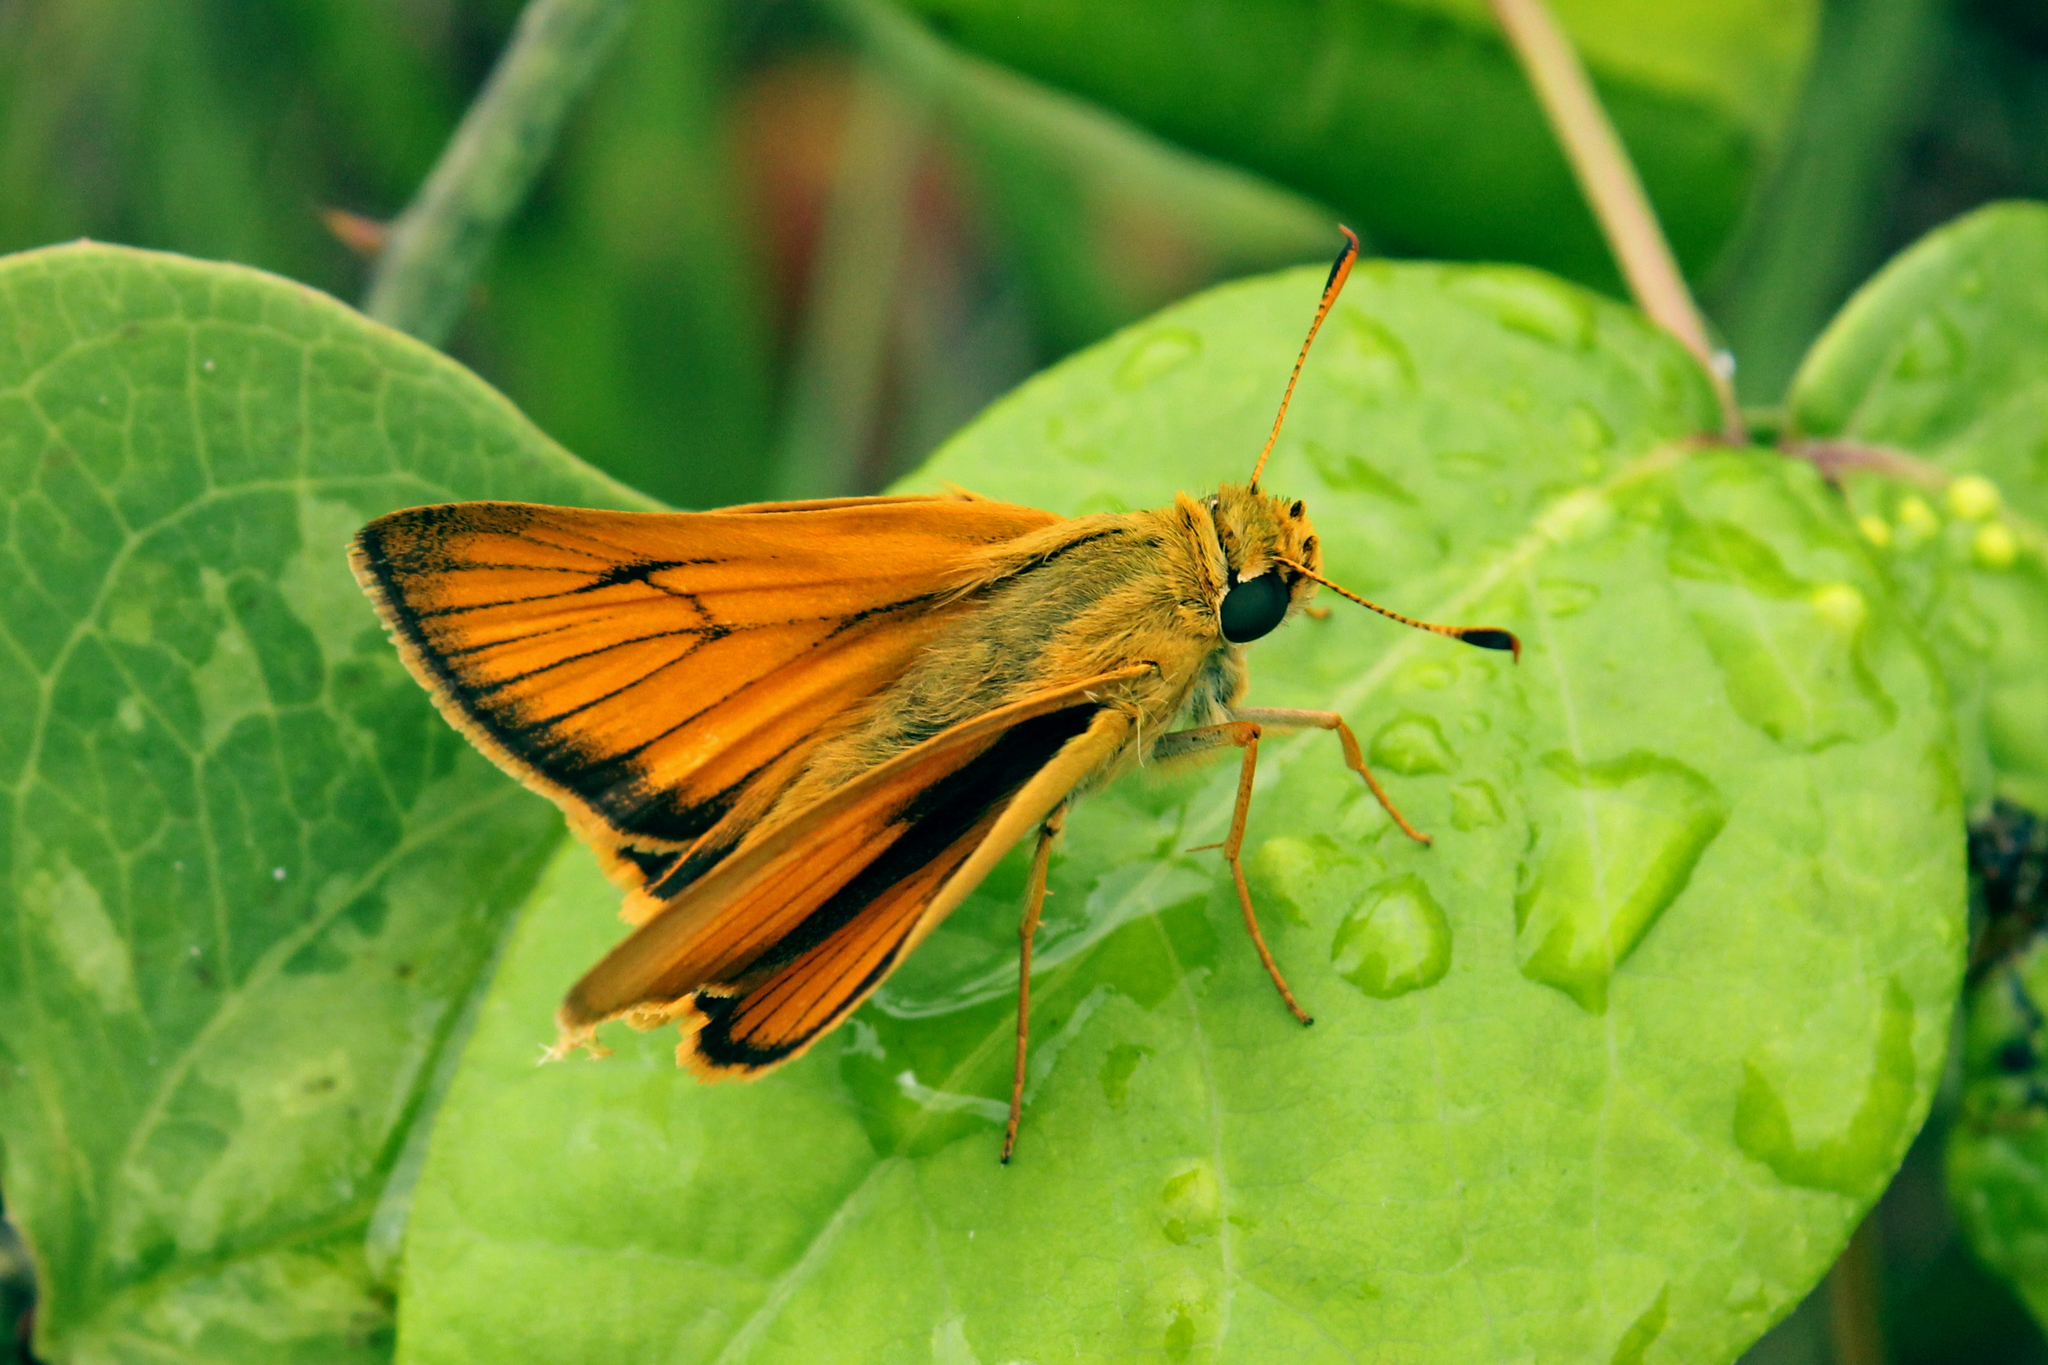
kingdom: Animalia
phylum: Arthropoda
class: Insecta
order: Lepidoptera
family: Hesperiidae
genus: Atrytone
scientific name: Atrytone delaware
